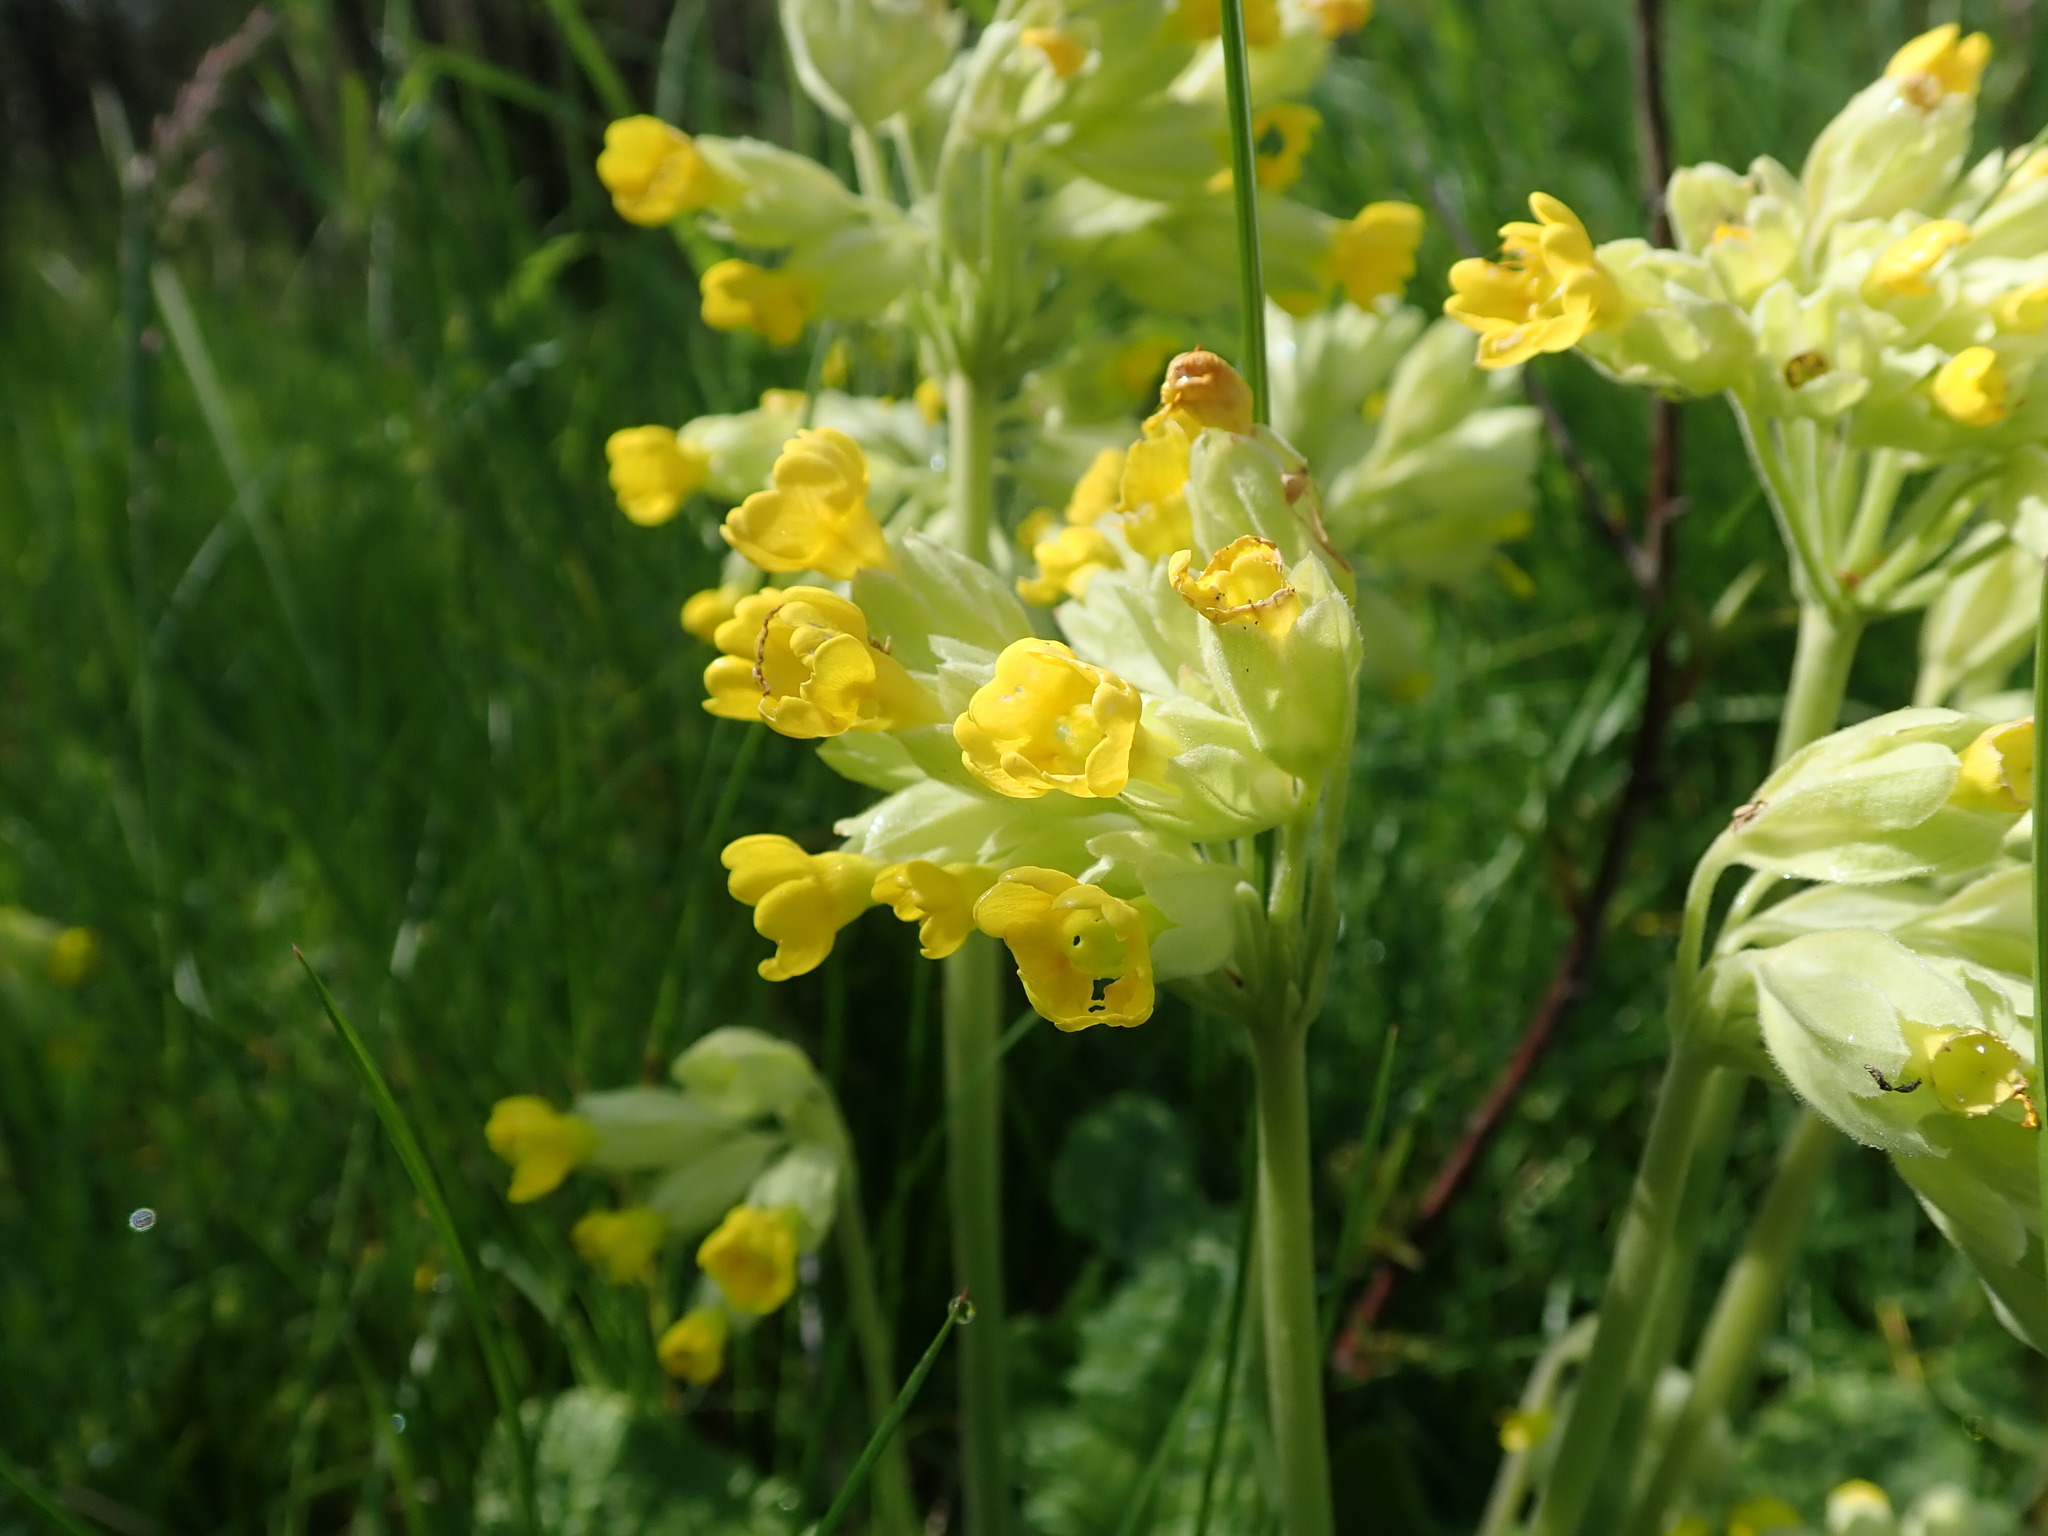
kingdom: Plantae
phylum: Tracheophyta
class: Magnoliopsida
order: Ericales
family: Primulaceae
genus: Primula
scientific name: Primula veris
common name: Cowslip
